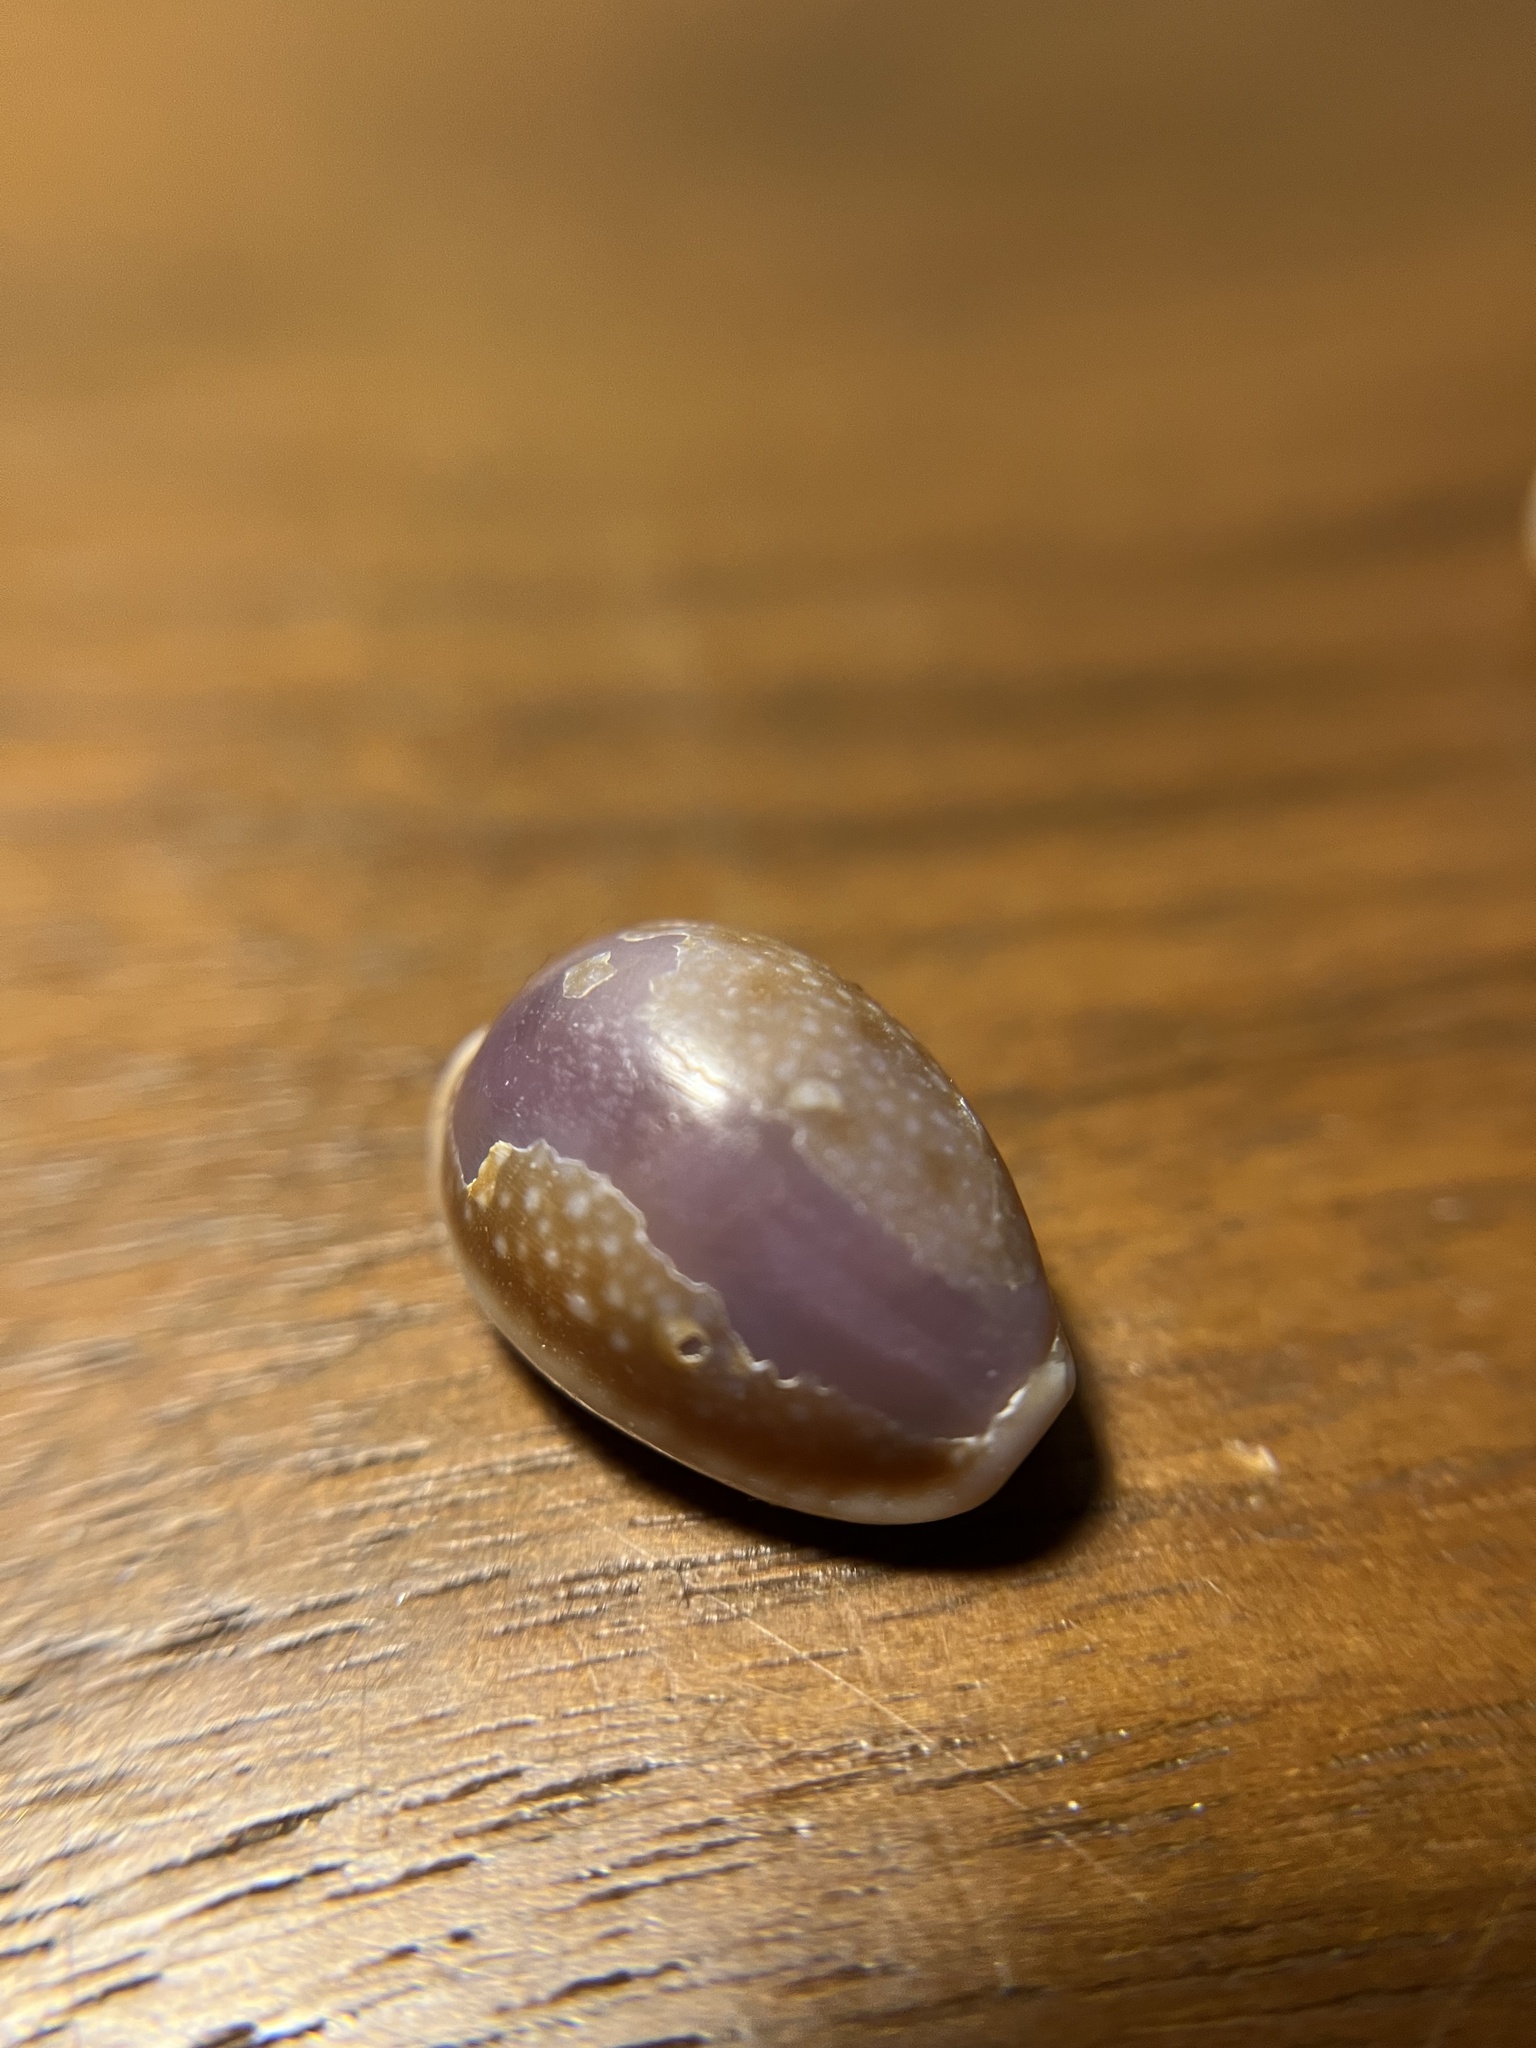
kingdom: Animalia
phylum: Mollusca
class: Gastropoda
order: Littorinimorpha
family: Cypraeidae
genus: Naria
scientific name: Naria helvola
